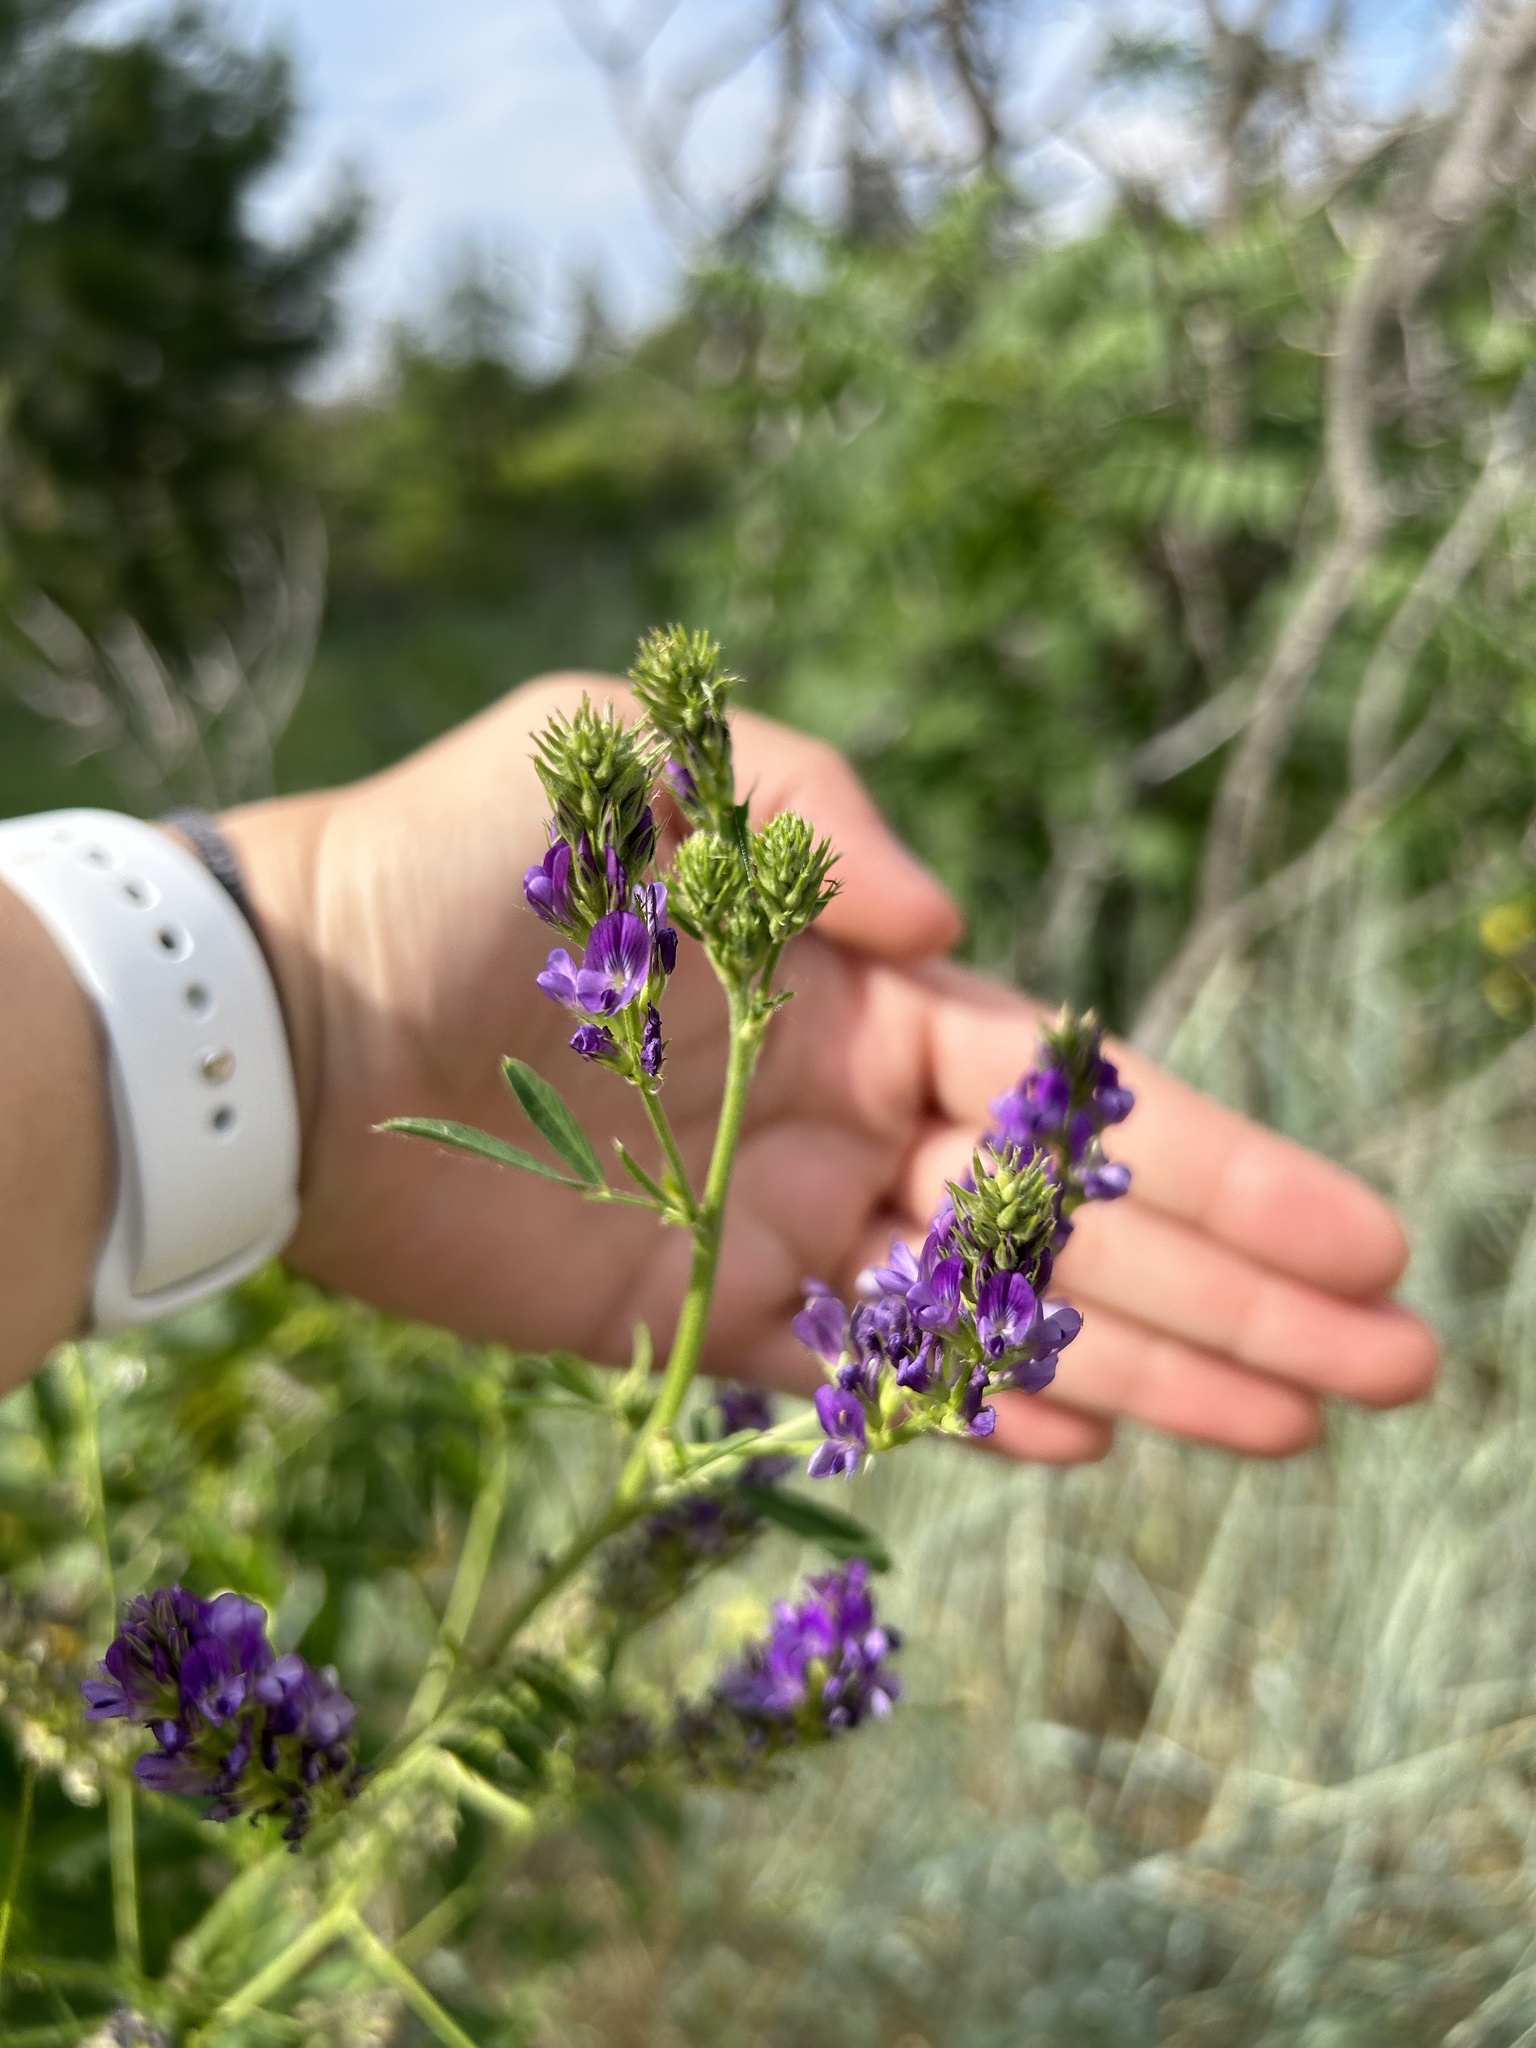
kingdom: Plantae
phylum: Tracheophyta
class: Magnoliopsida
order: Fabales
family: Fabaceae
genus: Medicago
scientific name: Medicago sativa
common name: Alfalfa
